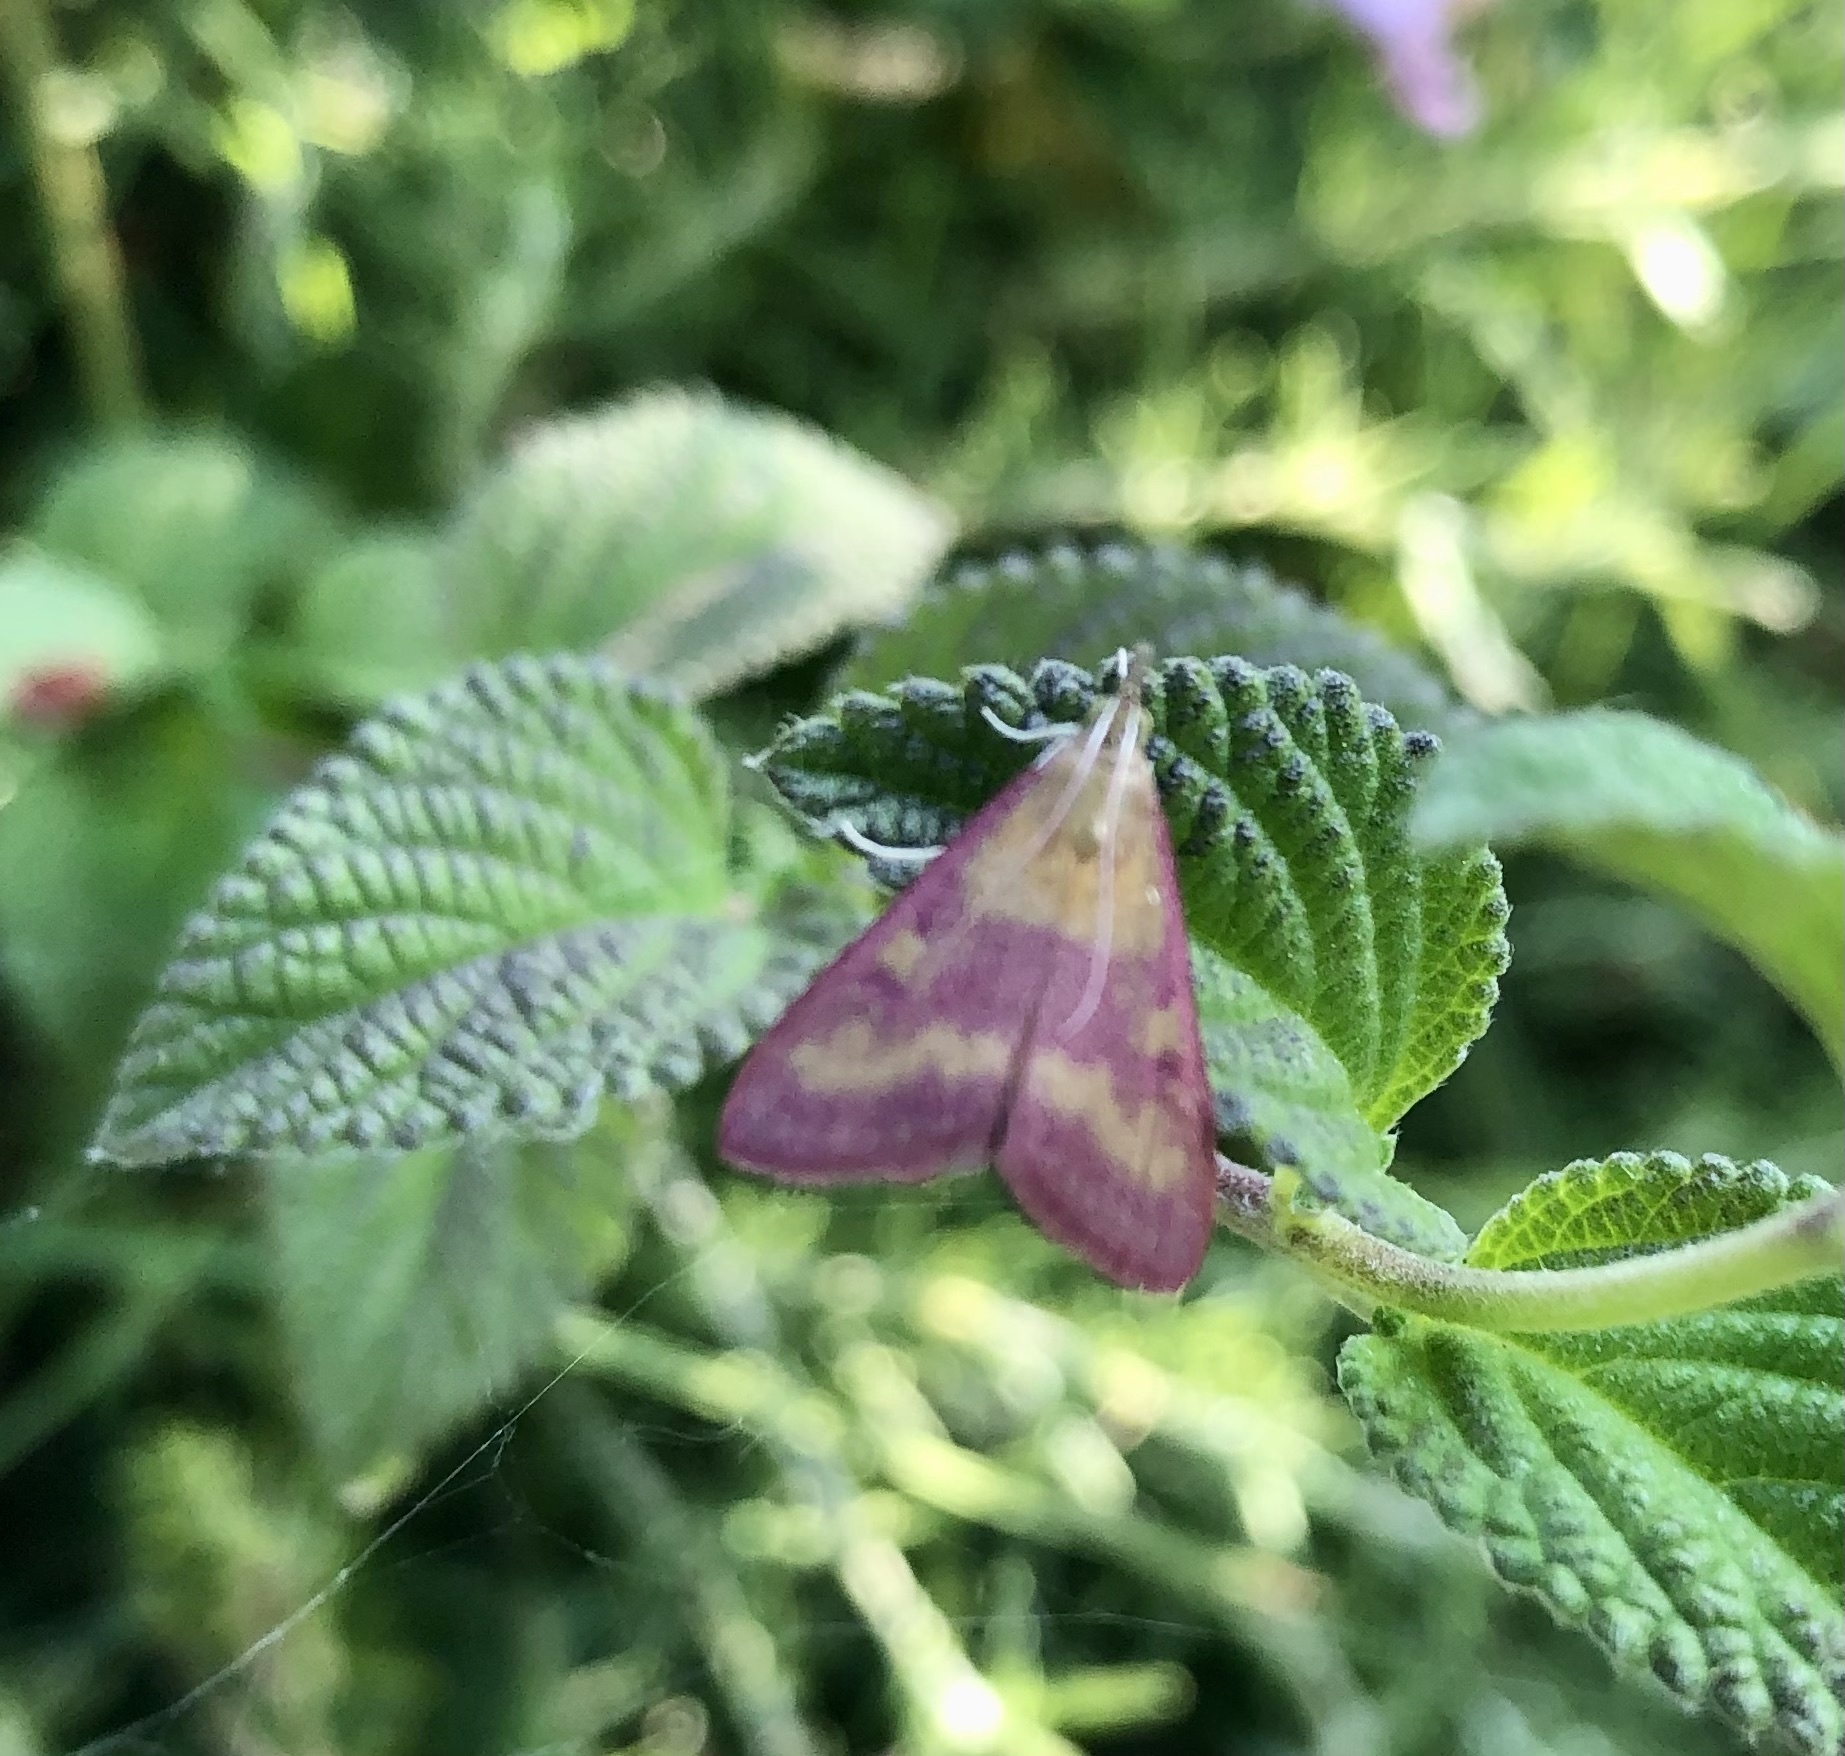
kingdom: Animalia
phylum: Arthropoda
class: Insecta
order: Lepidoptera
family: Crambidae
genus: Pyrausta
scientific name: Pyrausta laticlavia
